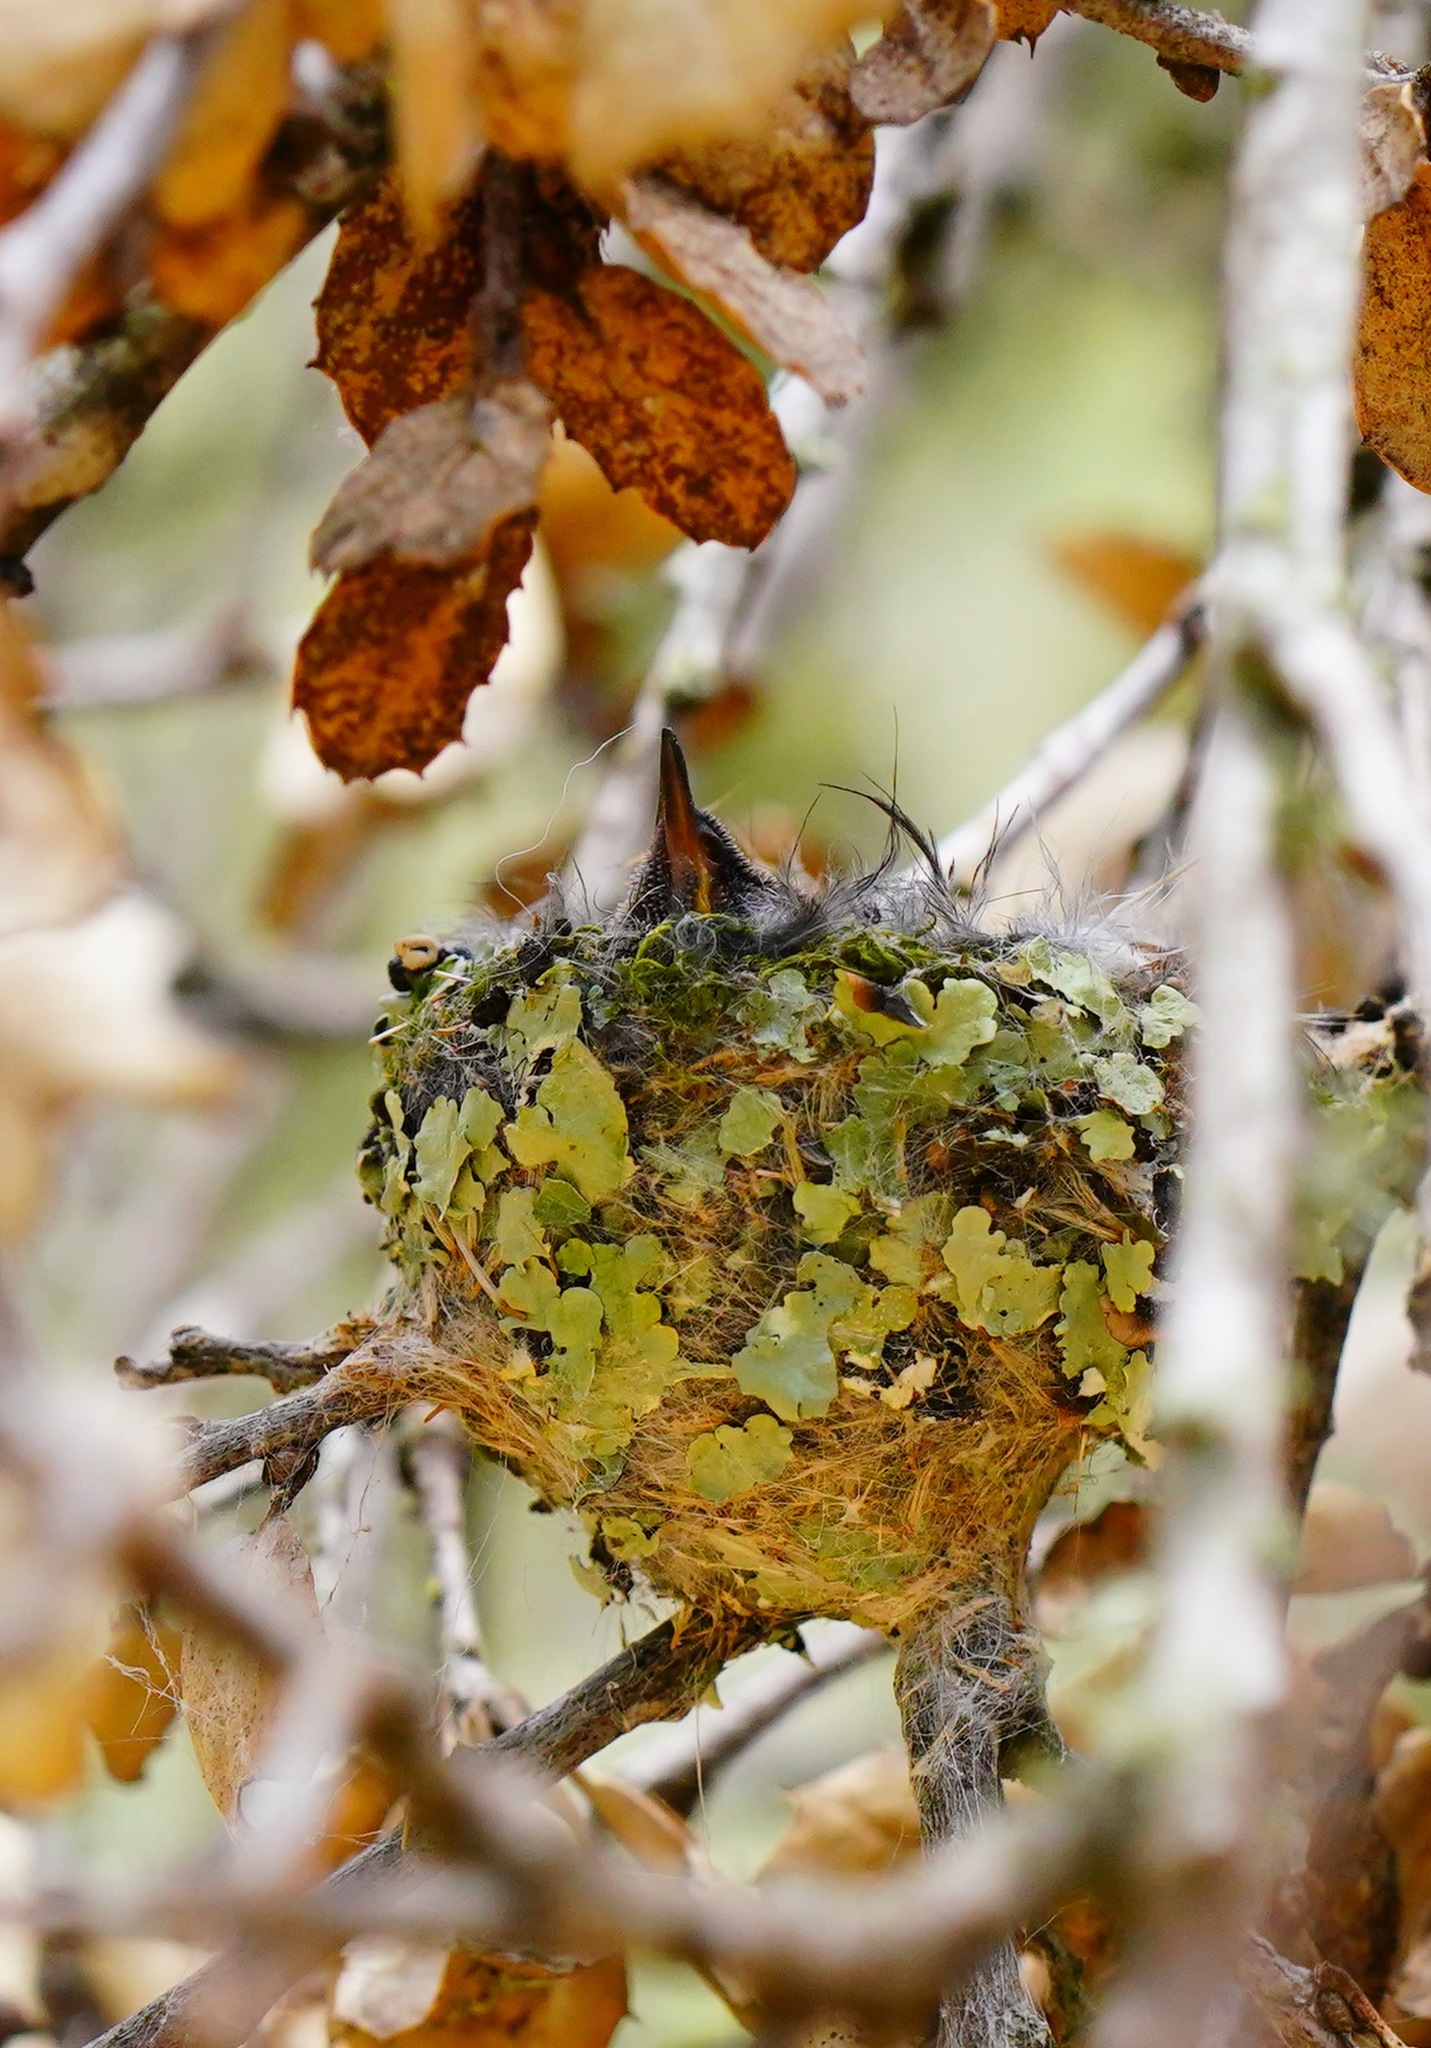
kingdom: Animalia
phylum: Chordata
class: Aves
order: Apodiformes
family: Trochilidae
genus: Calypte
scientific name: Calypte anna
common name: Anna's hummingbird
